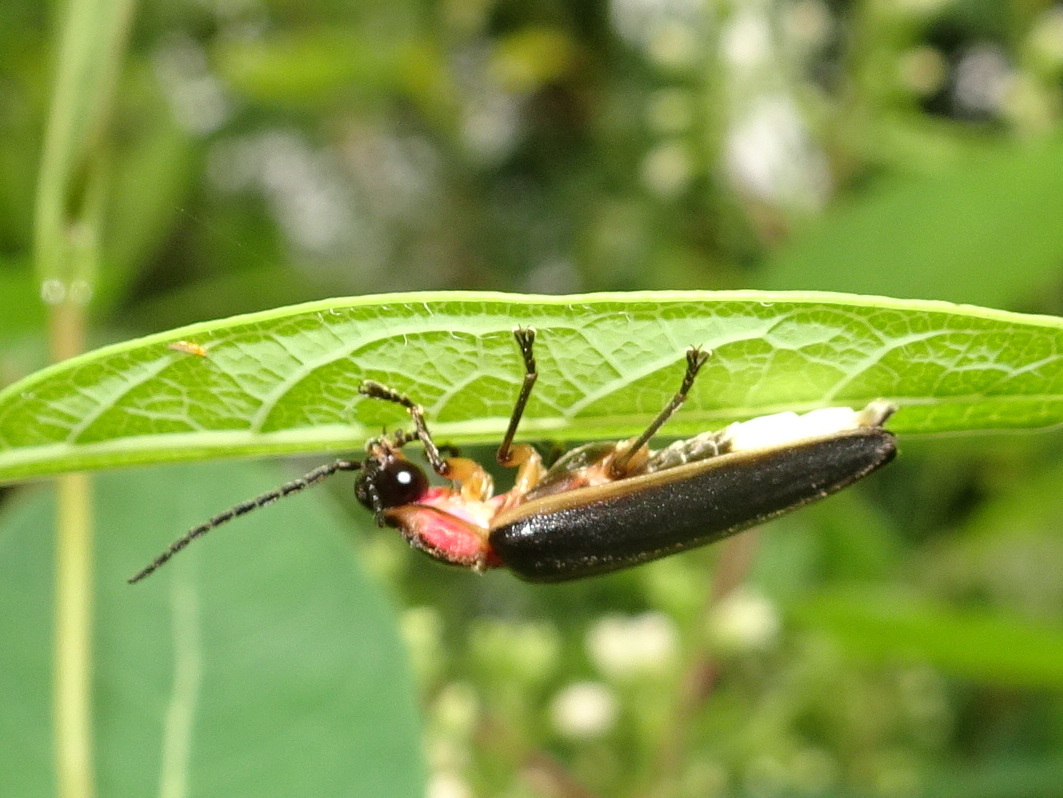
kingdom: Animalia
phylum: Arthropoda
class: Insecta
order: Coleoptera
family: Lampyridae
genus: Photinus
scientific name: Photinus pyralis
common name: Big dipper firefly
